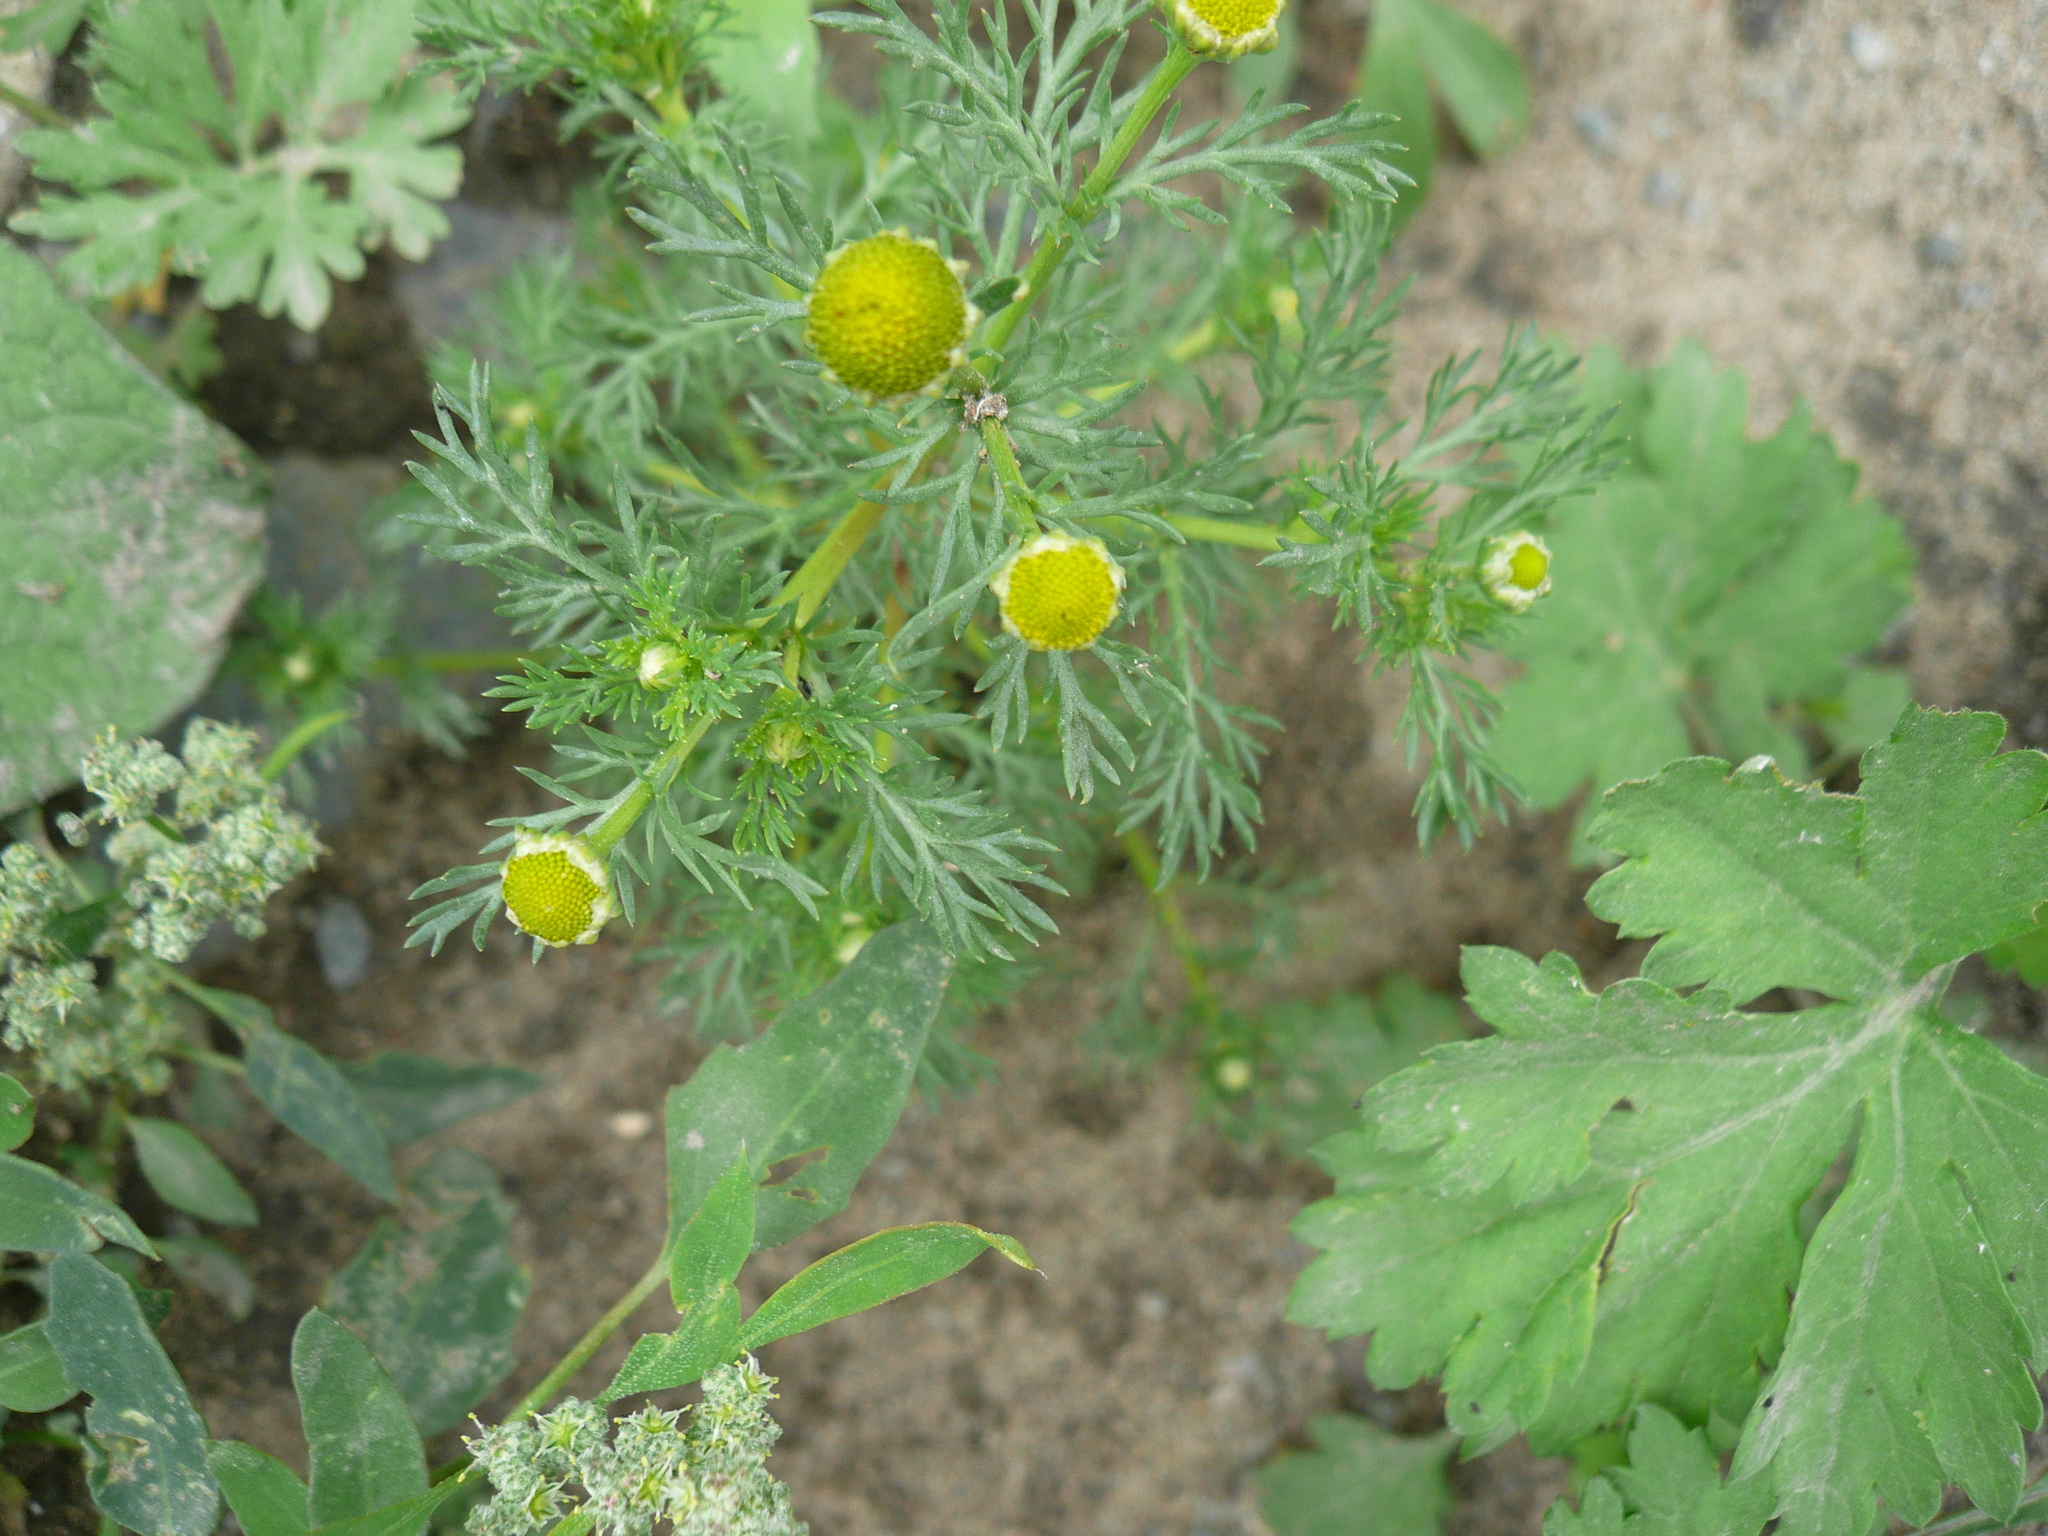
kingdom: Plantae
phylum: Tracheophyta
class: Magnoliopsida
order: Asterales
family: Asteraceae
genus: Matricaria
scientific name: Matricaria discoidea
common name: Disc mayweed
